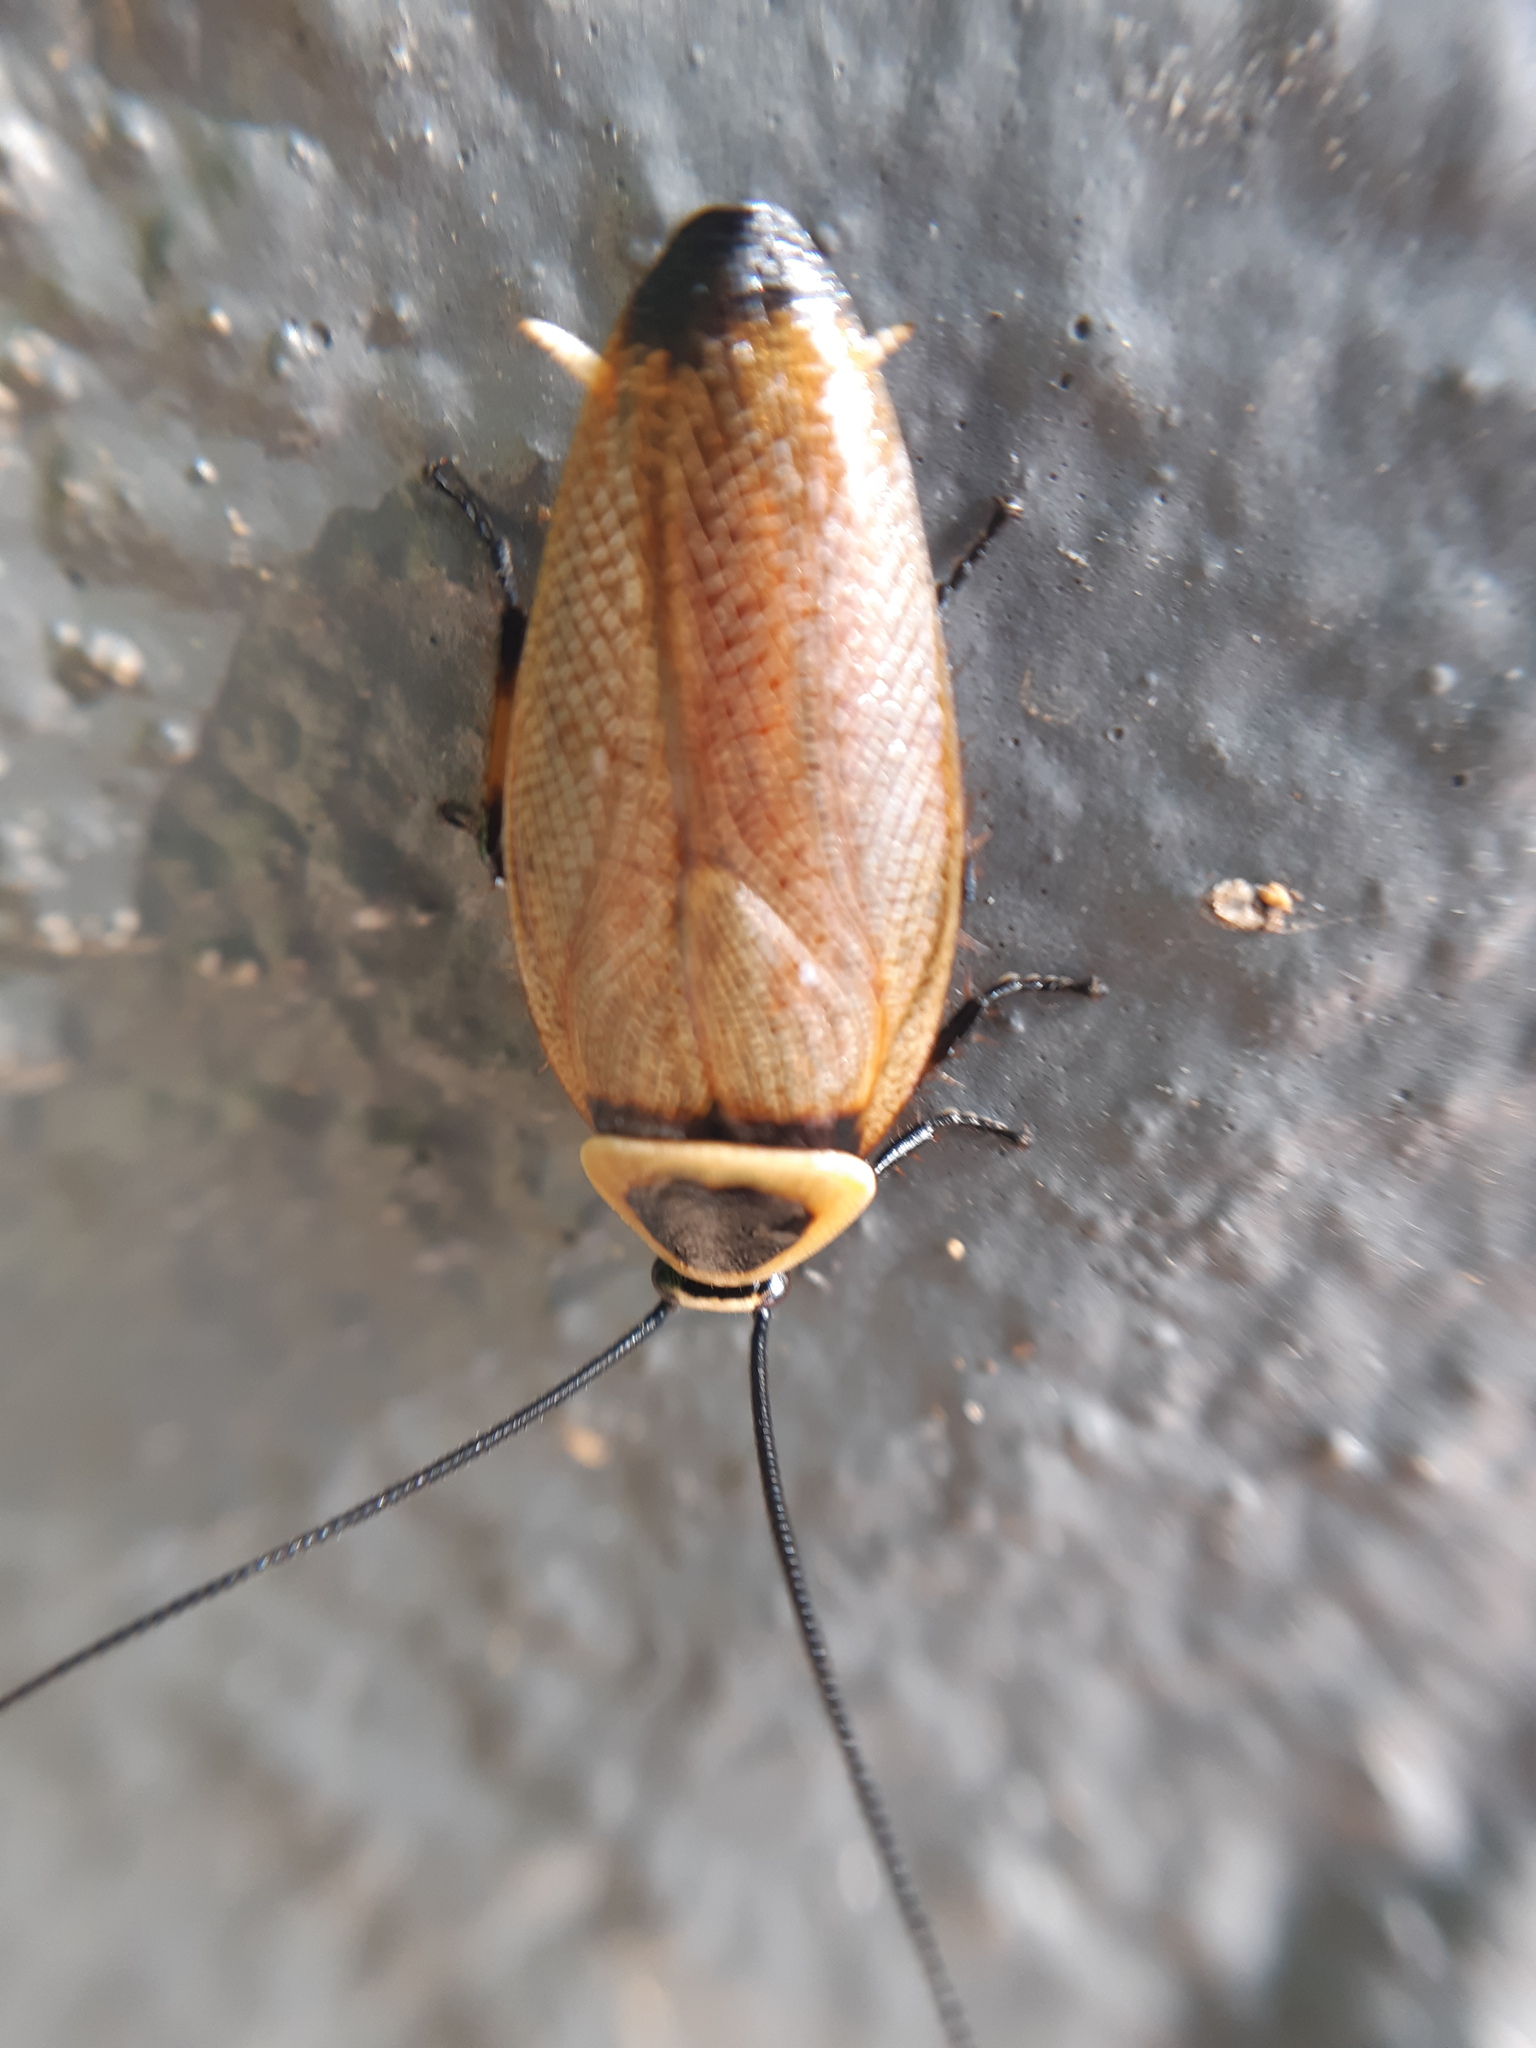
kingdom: Animalia
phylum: Arthropoda
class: Insecta
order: Blattodea
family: Ectobiidae
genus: Ellipsidion
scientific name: Ellipsidion australe
